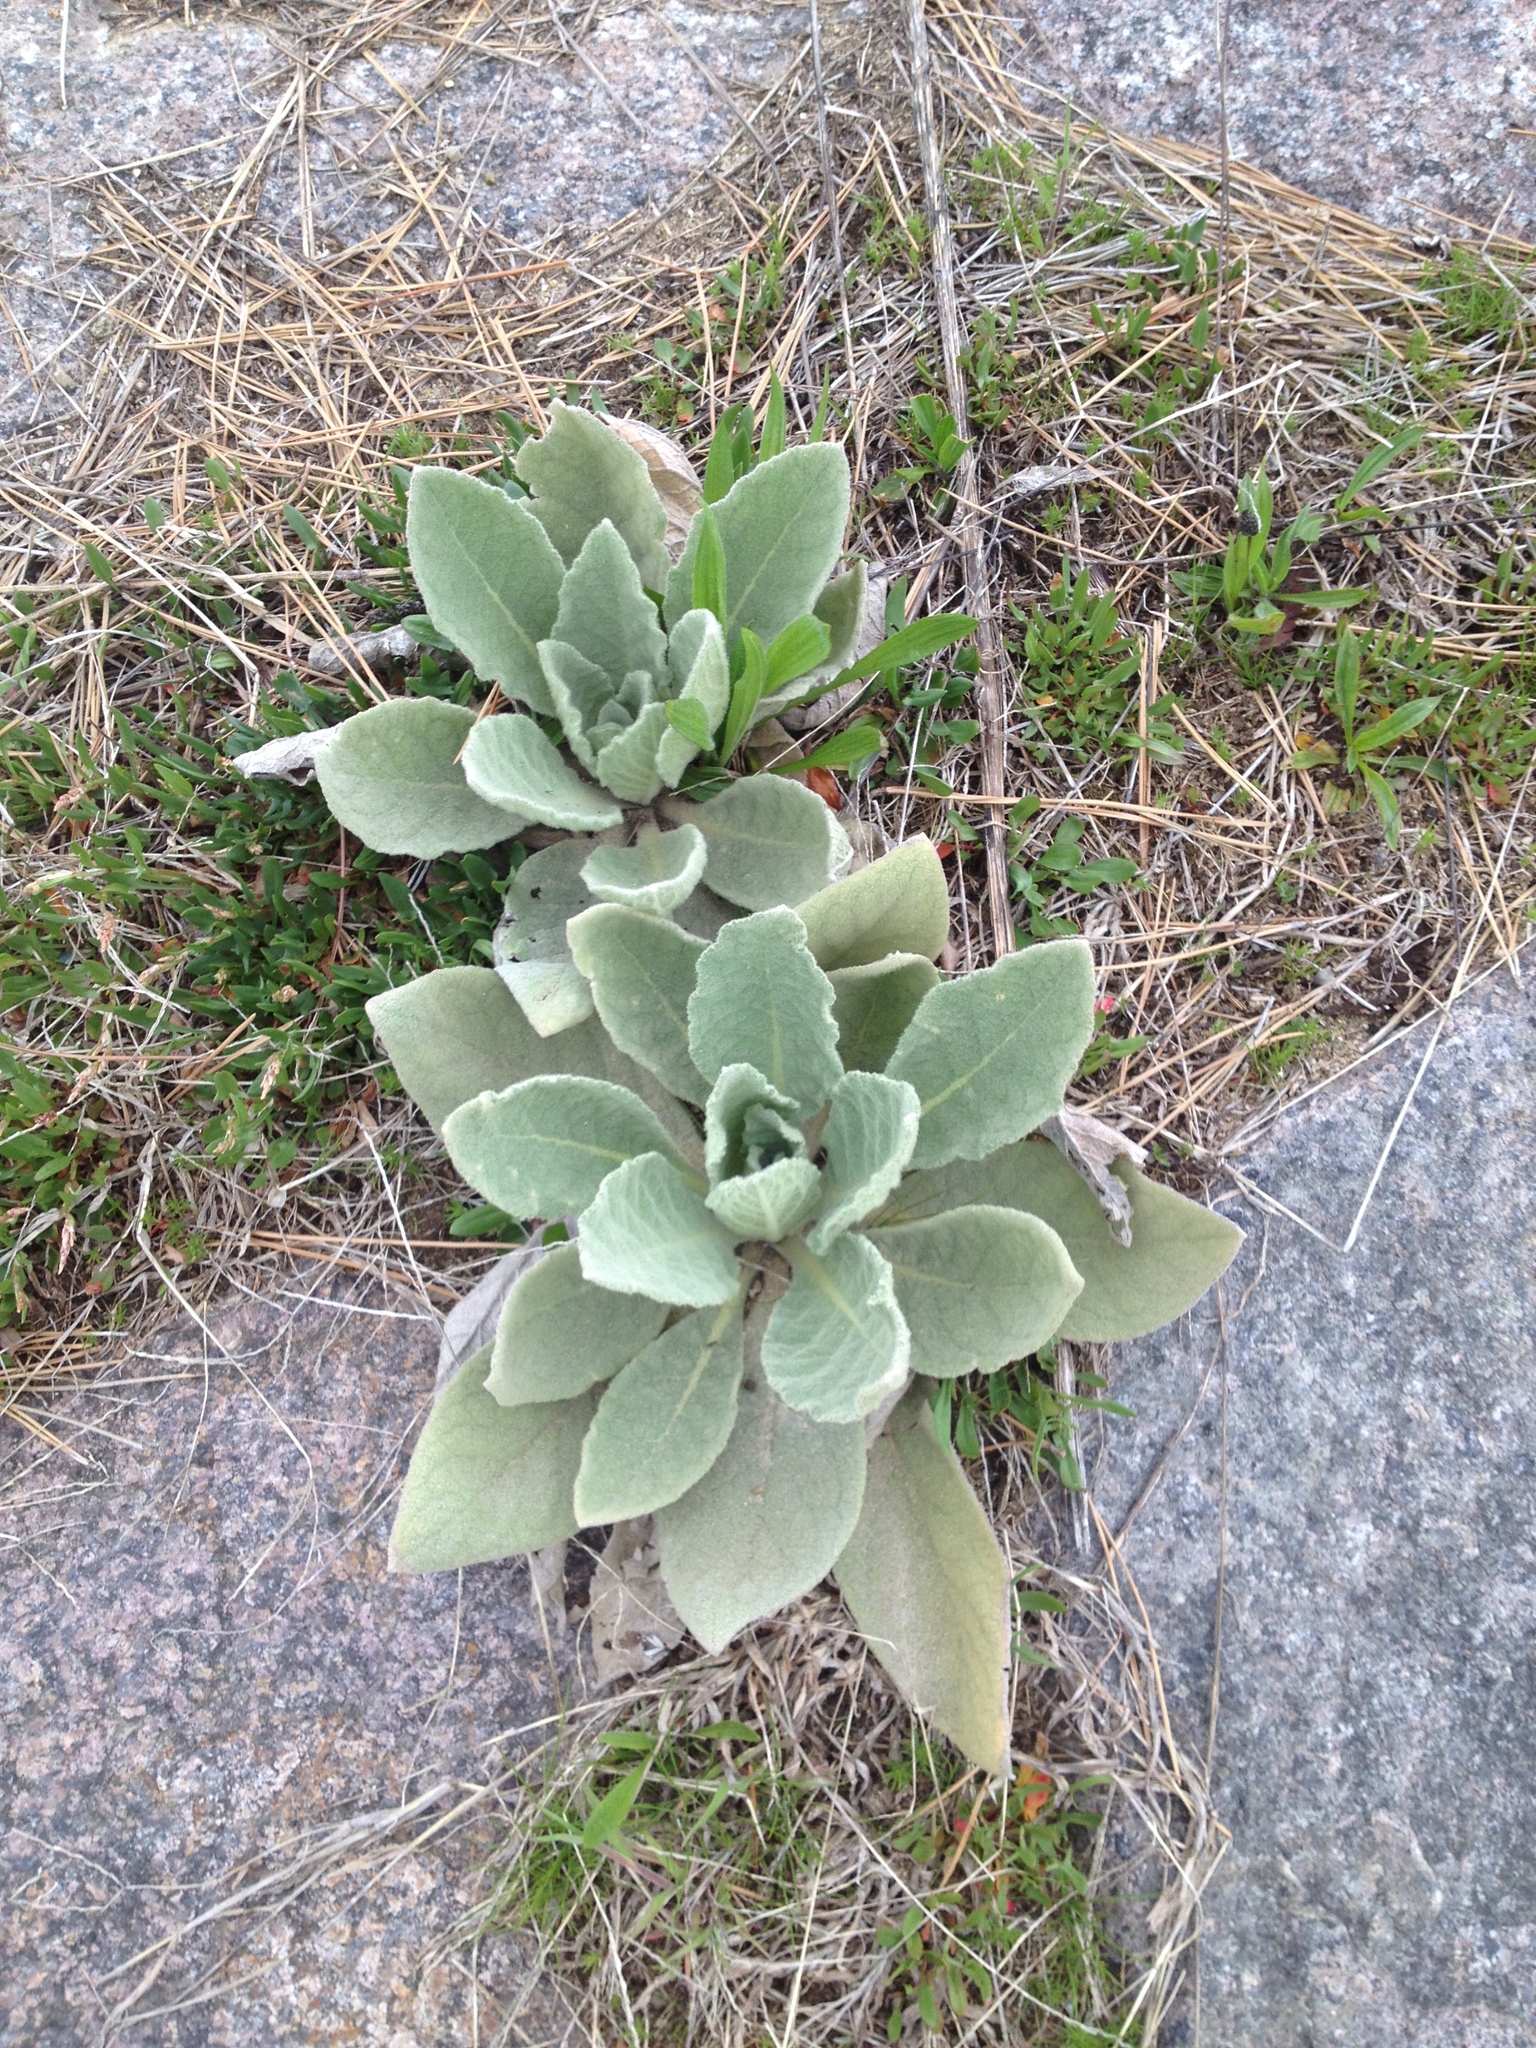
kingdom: Plantae
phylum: Tracheophyta
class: Magnoliopsida
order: Lamiales
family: Scrophulariaceae
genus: Verbascum
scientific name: Verbascum thapsus
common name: Common mullein
